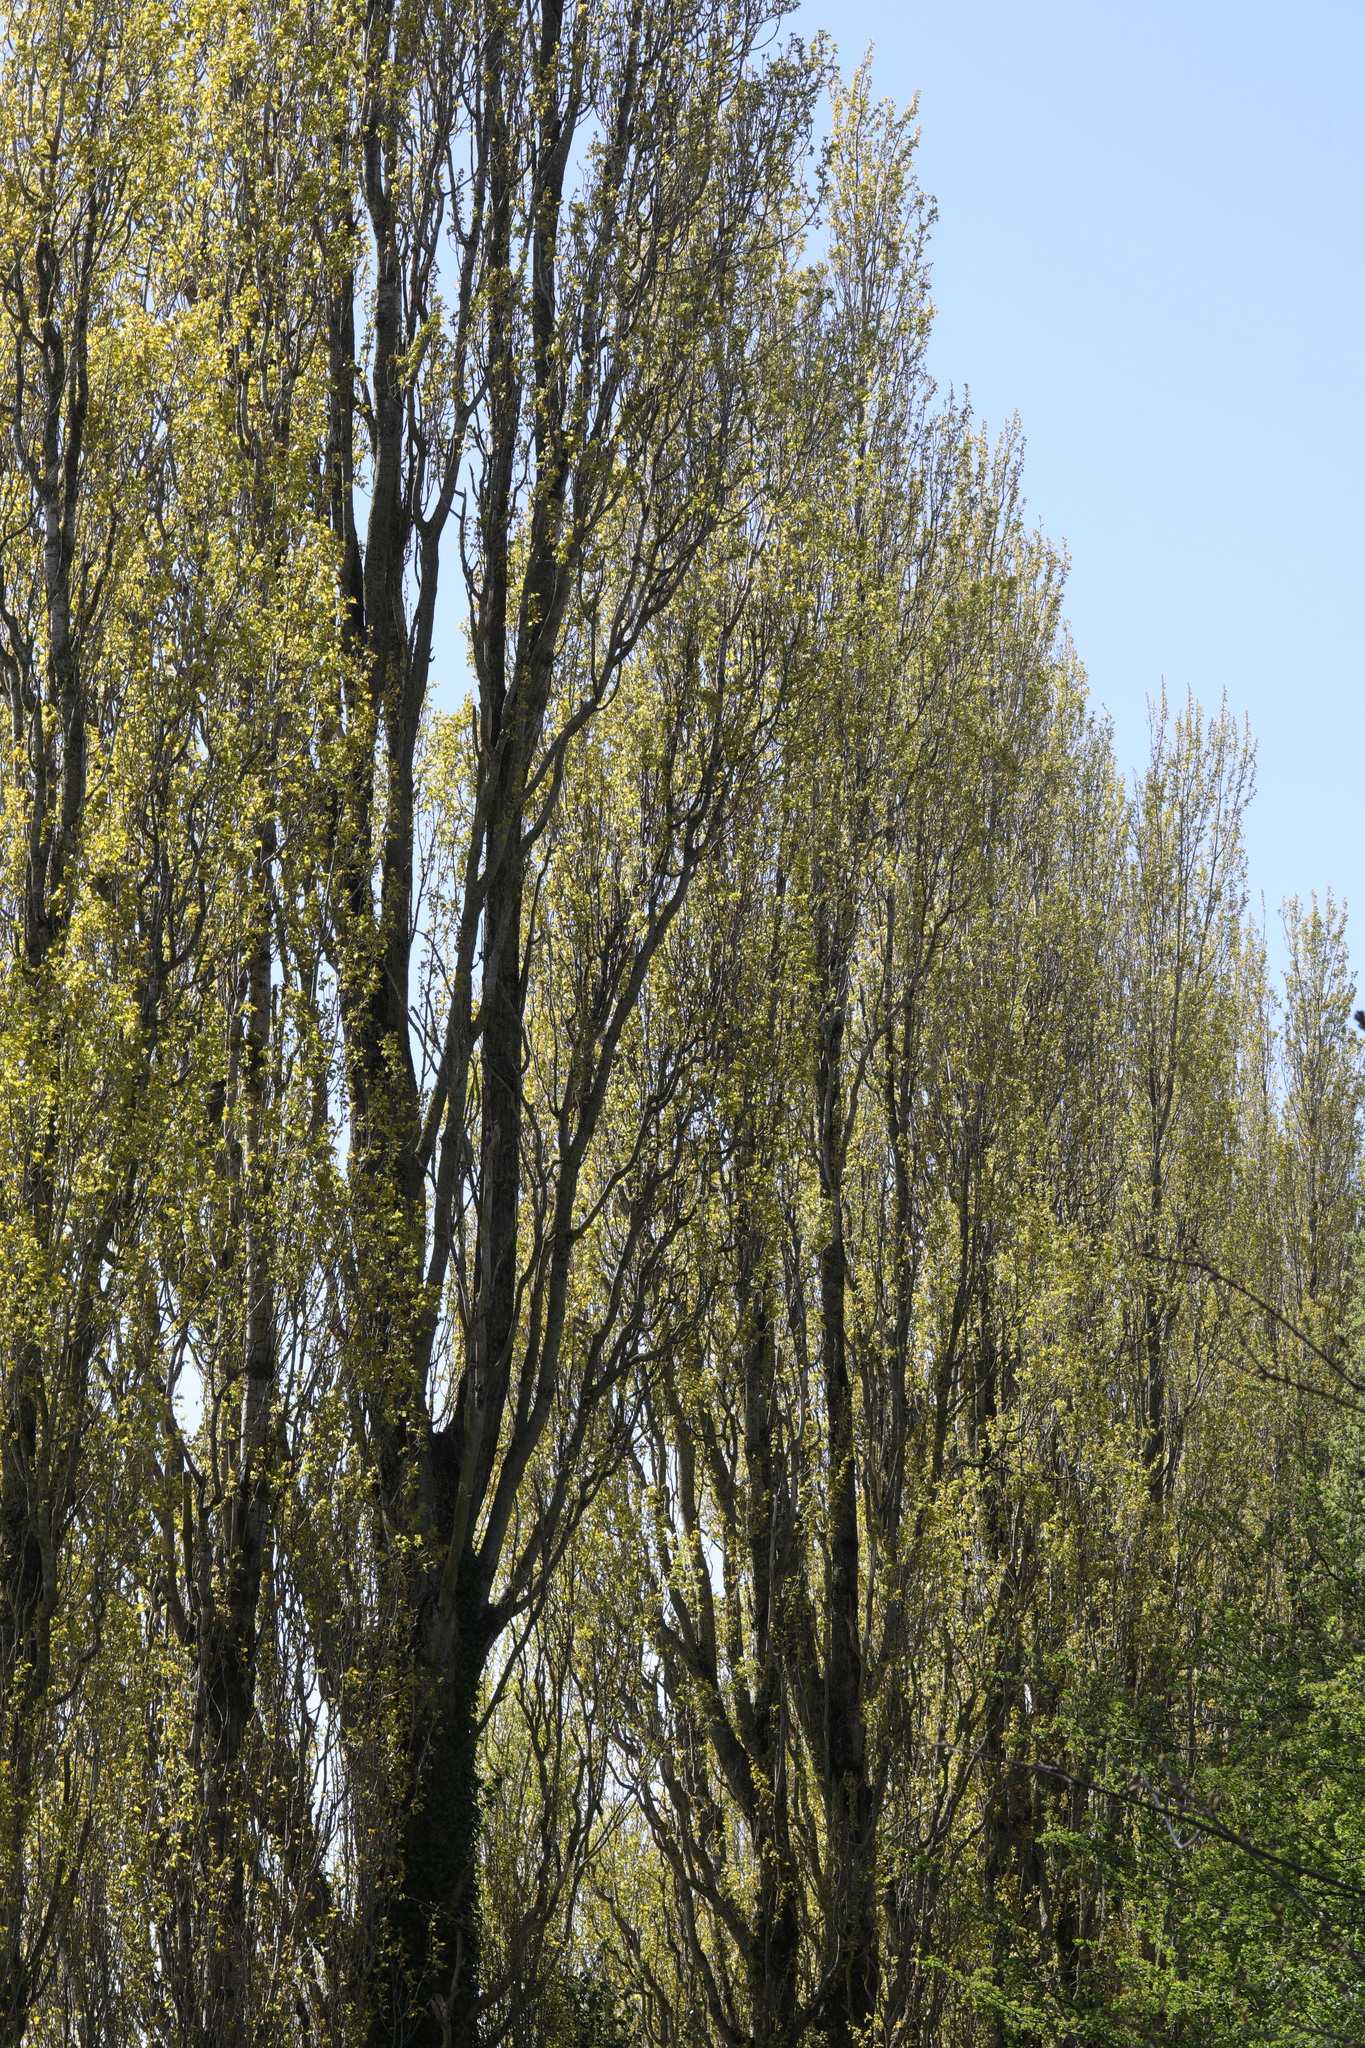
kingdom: Plantae
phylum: Tracheophyta
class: Magnoliopsida
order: Malpighiales
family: Salicaceae
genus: Populus
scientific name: Populus nigra
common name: Black poplar
